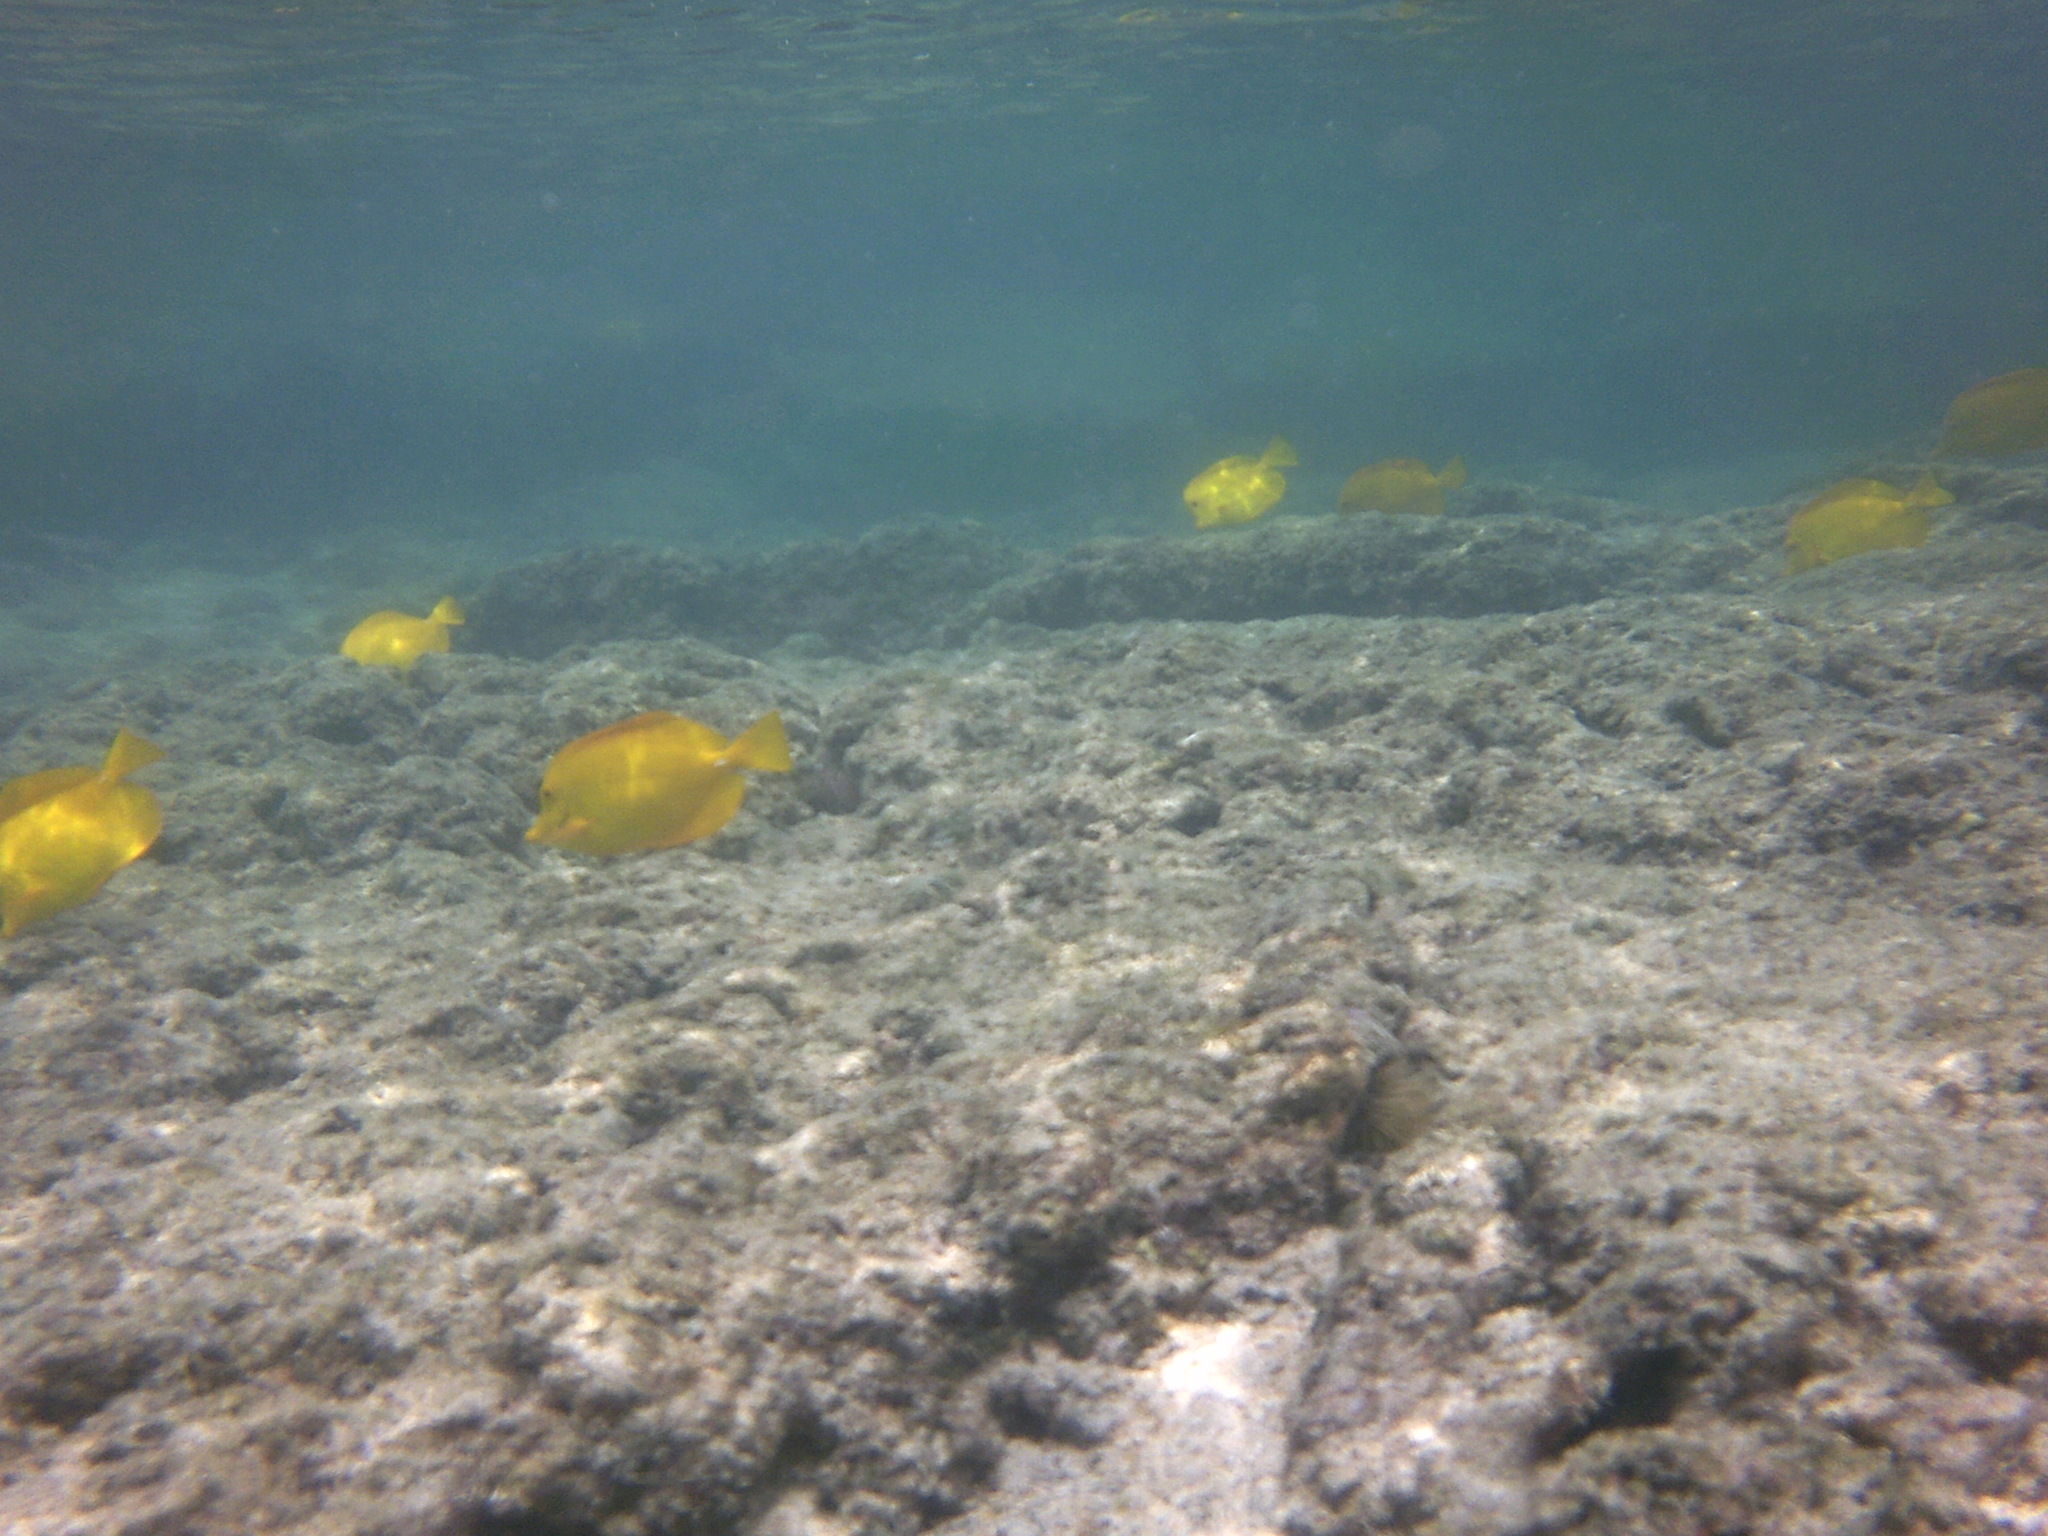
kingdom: Animalia
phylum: Chordata
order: Perciformes
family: Acanthuridae
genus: Zebrasoma
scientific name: Zebrasoma flavescens
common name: Yellow tang
